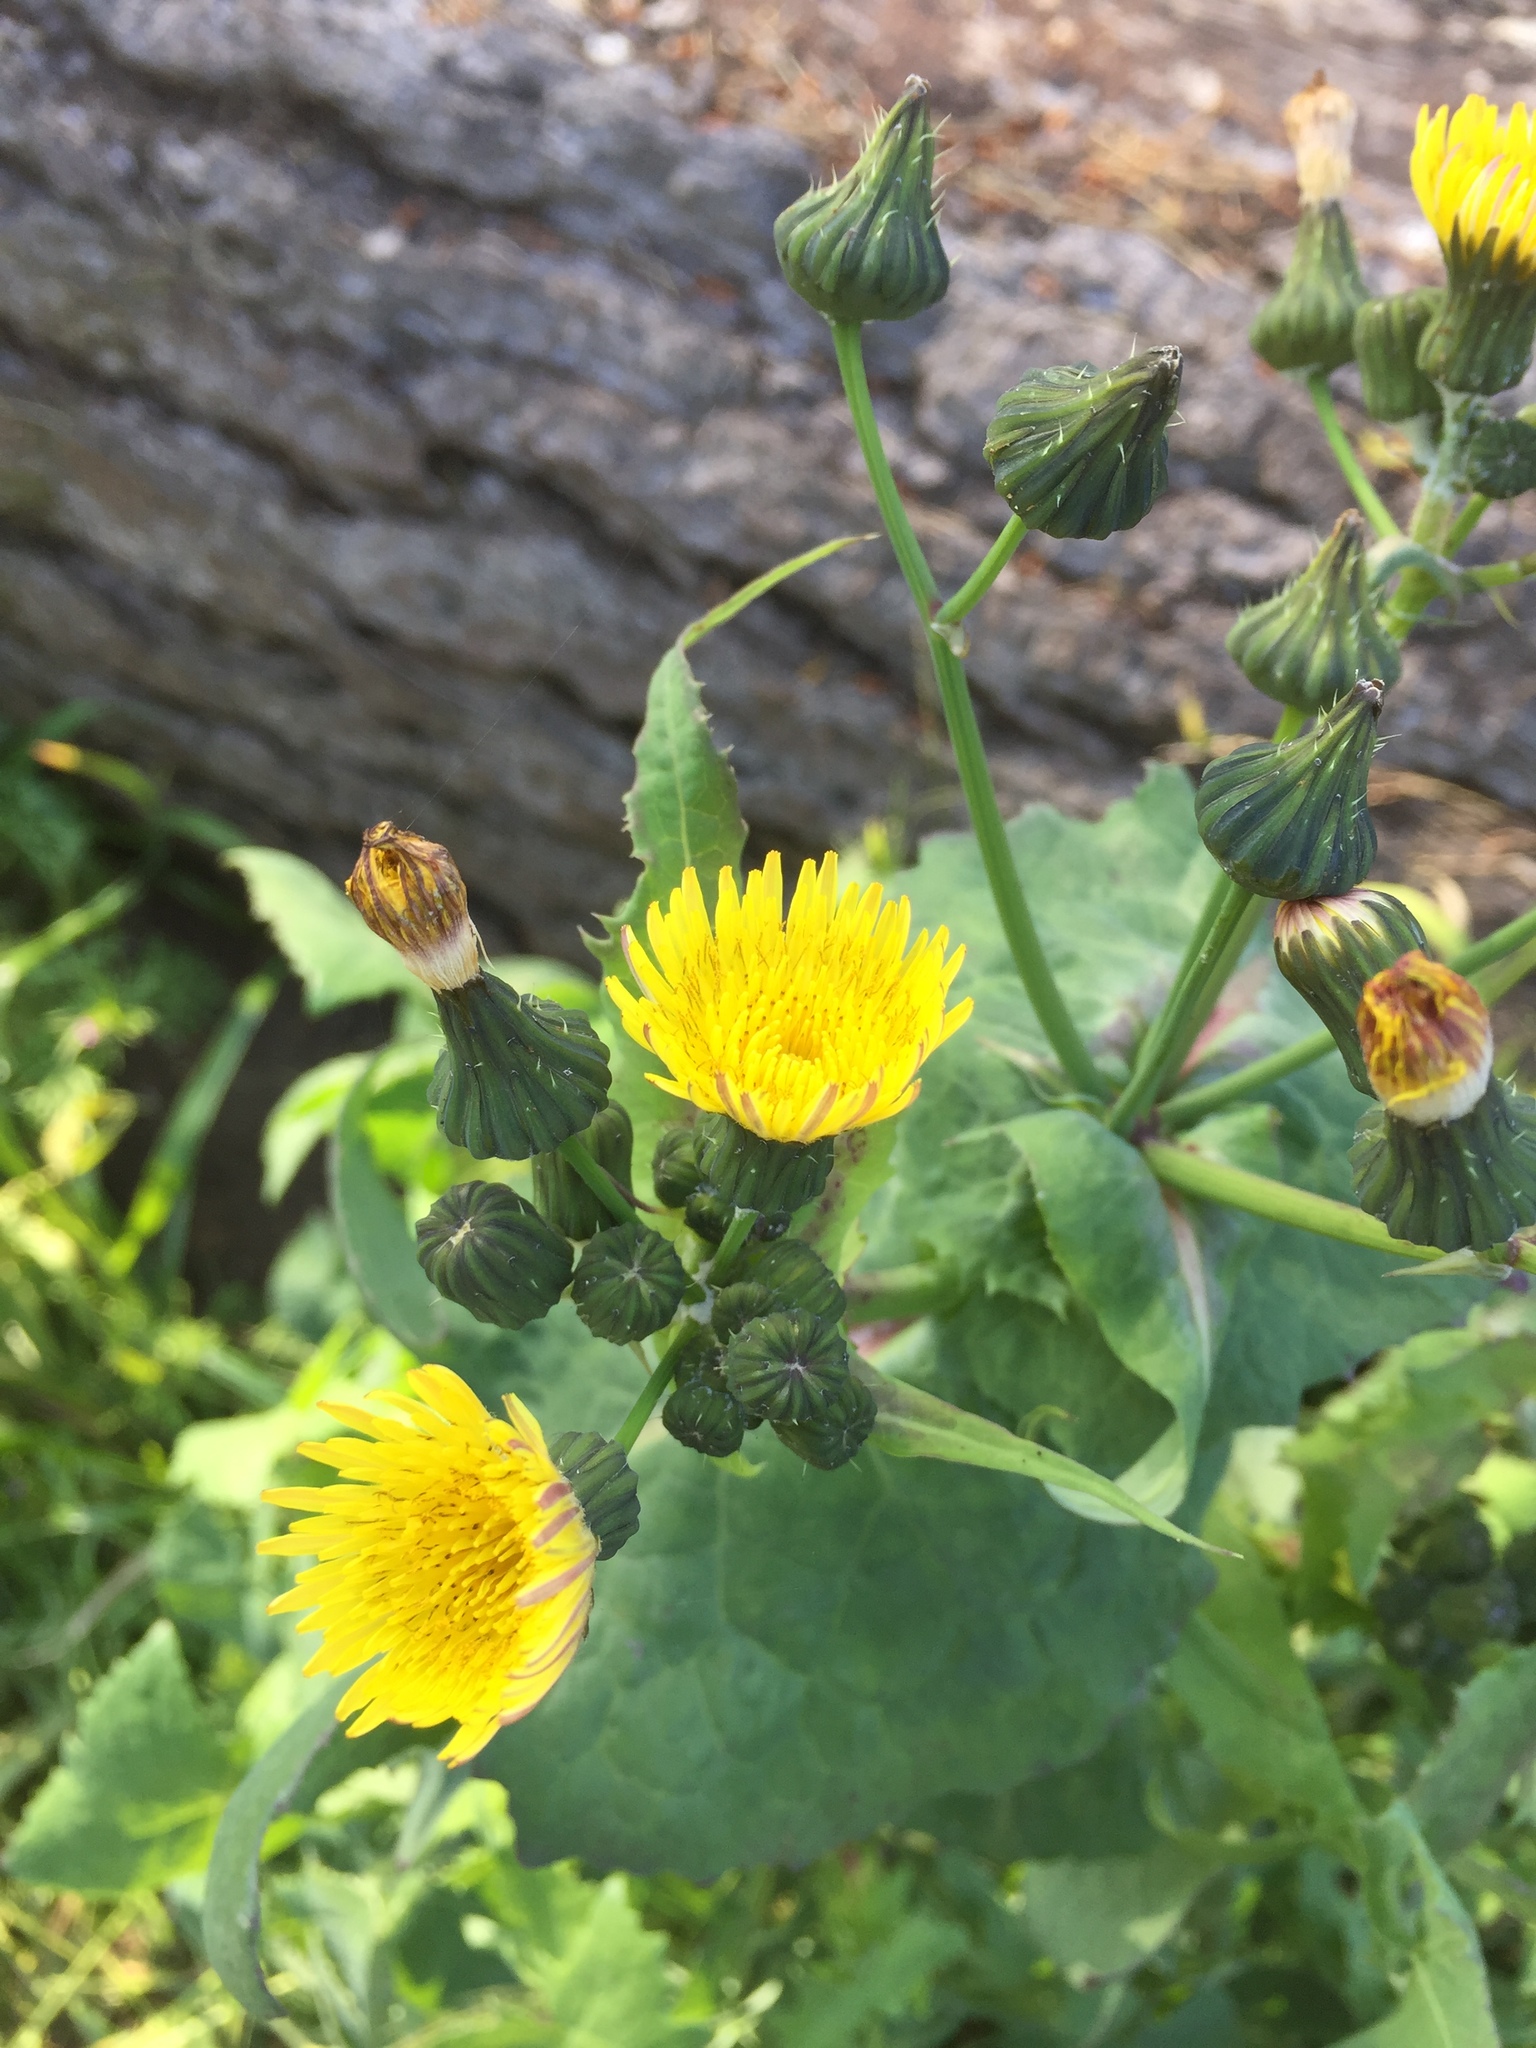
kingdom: Plantae
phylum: Tracheophyta
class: Magnoliopsida
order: Asterales
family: Asteraceae
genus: Sonchus
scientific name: Sonchus oleraceus
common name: Common sowthistle
